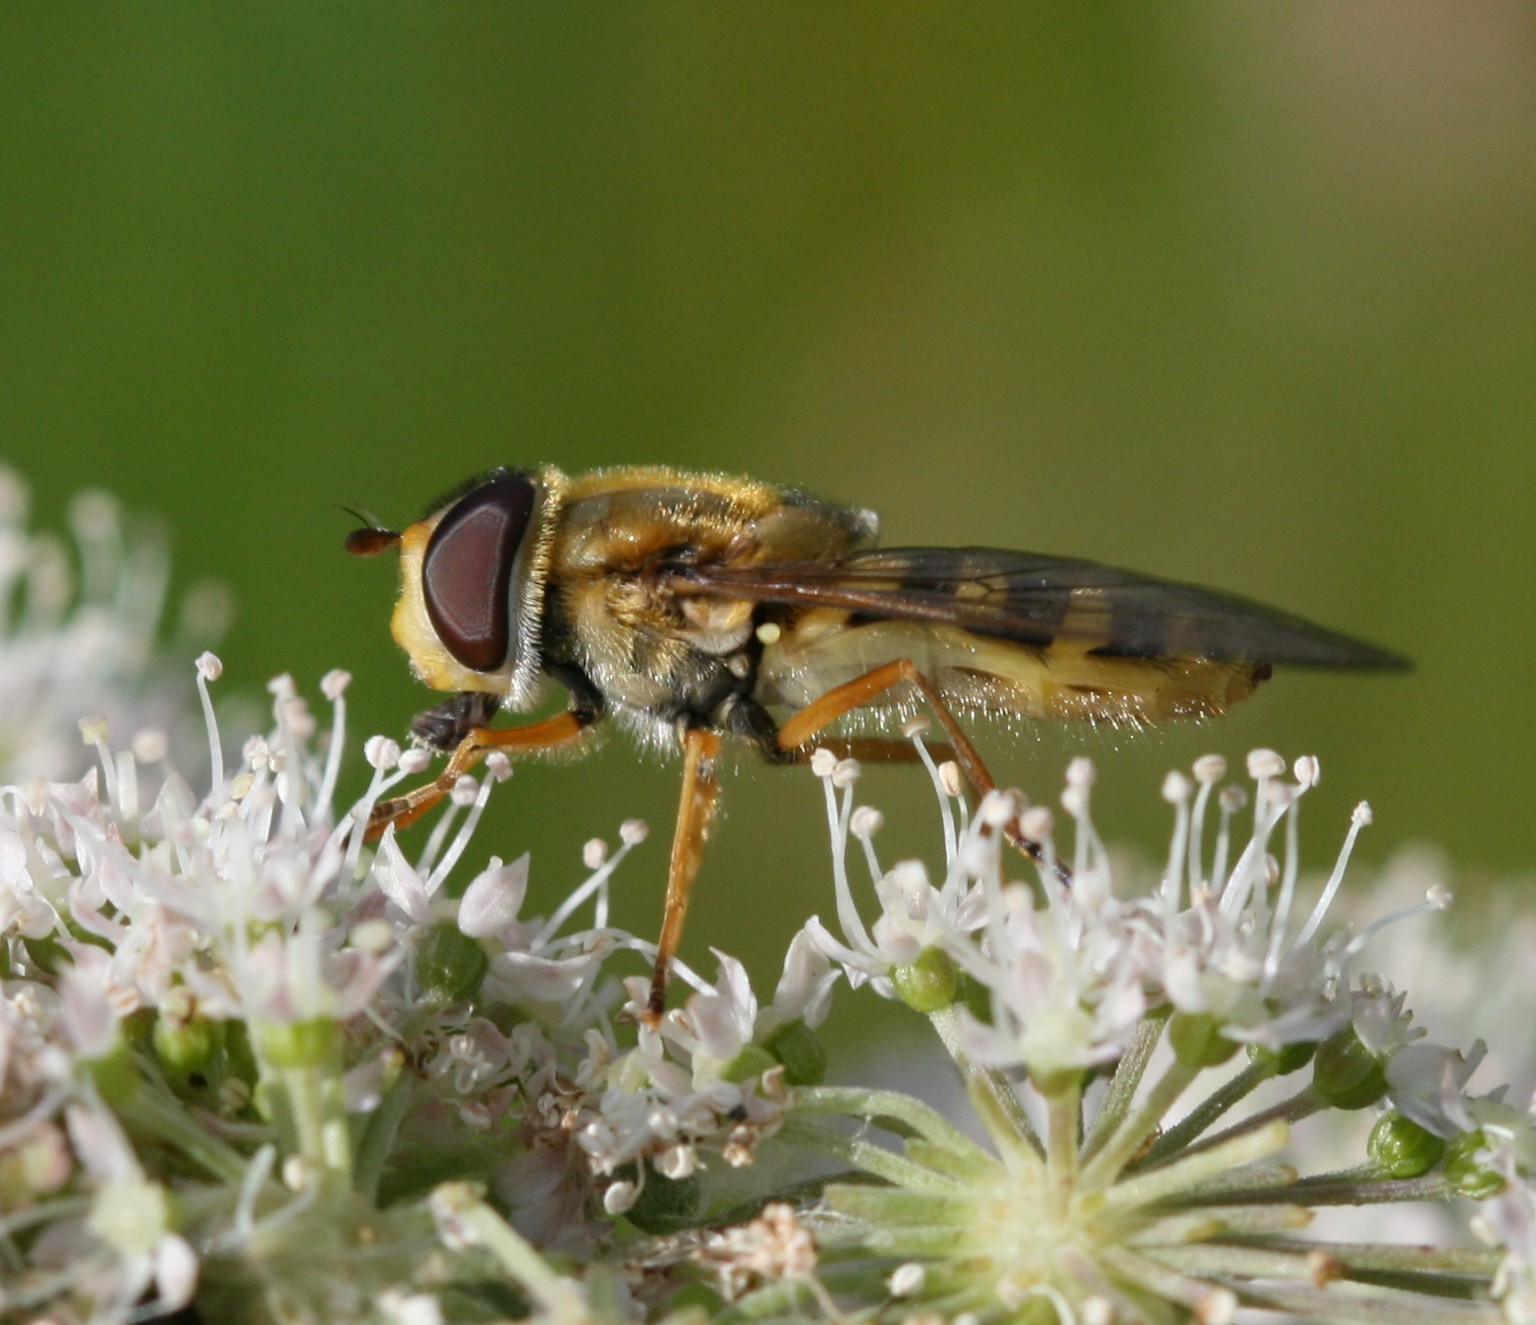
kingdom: Animalia
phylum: Arthropoda
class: Insecta
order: Diptera
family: Syrphidae
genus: Syrphus
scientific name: Syrphus ribesii
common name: Common flower fly
